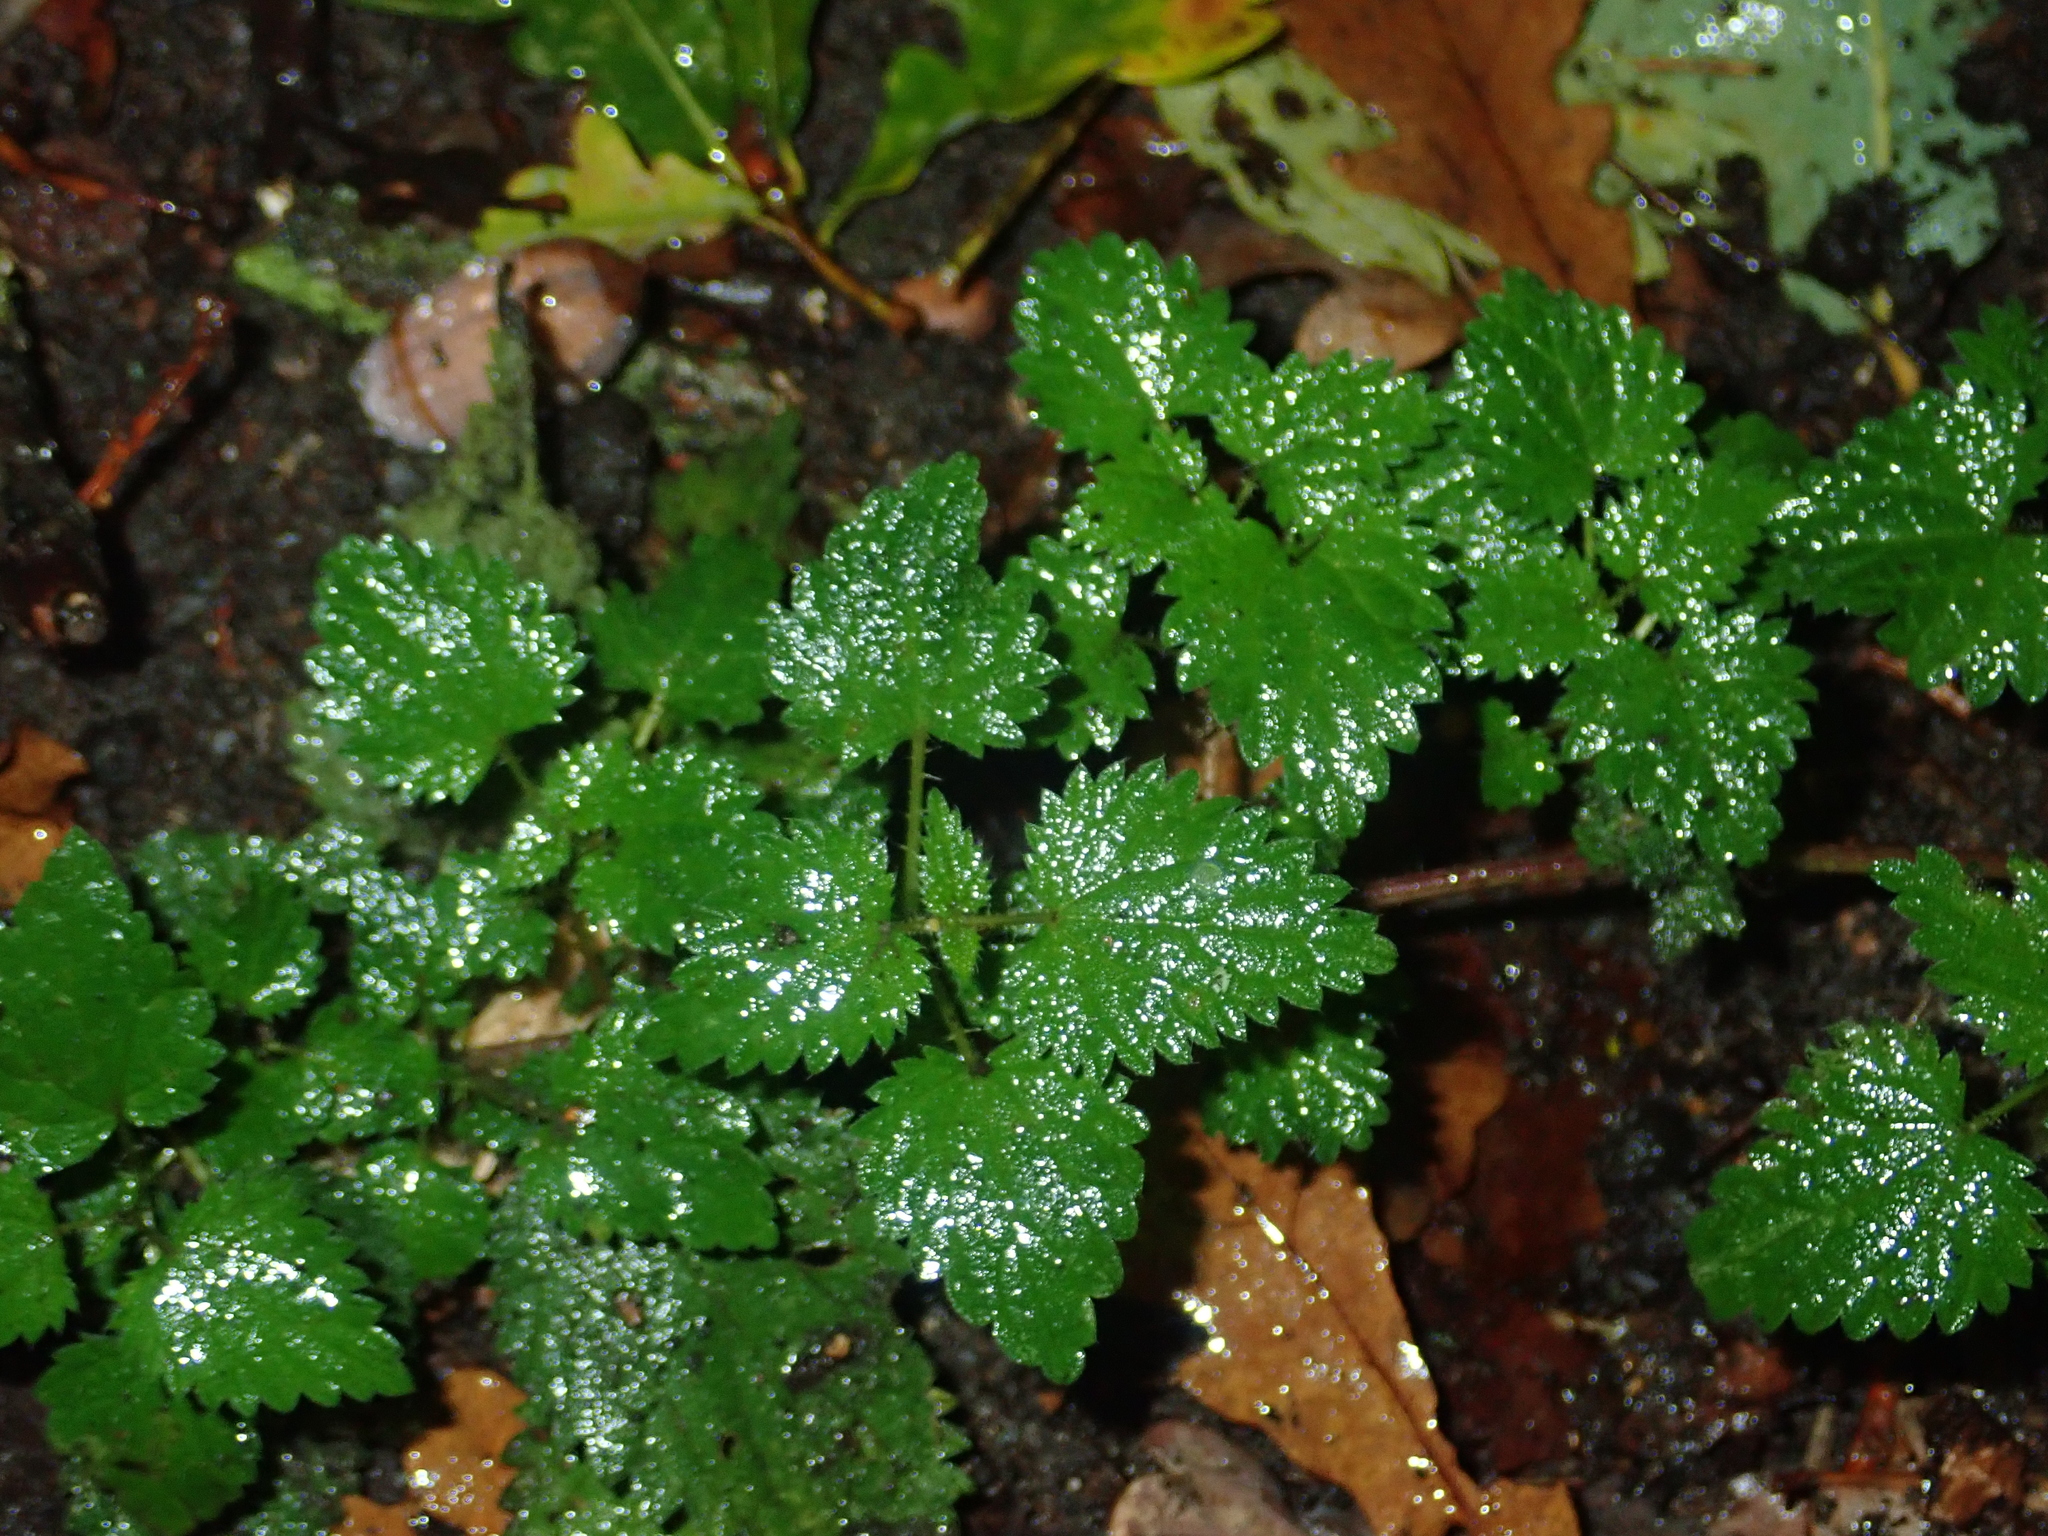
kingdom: Plantae
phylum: Tracheophyta
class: Magnoliopsida
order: Rosales
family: Urticaceae
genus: Urtica
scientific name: Urtica dioica
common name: Common nettle
